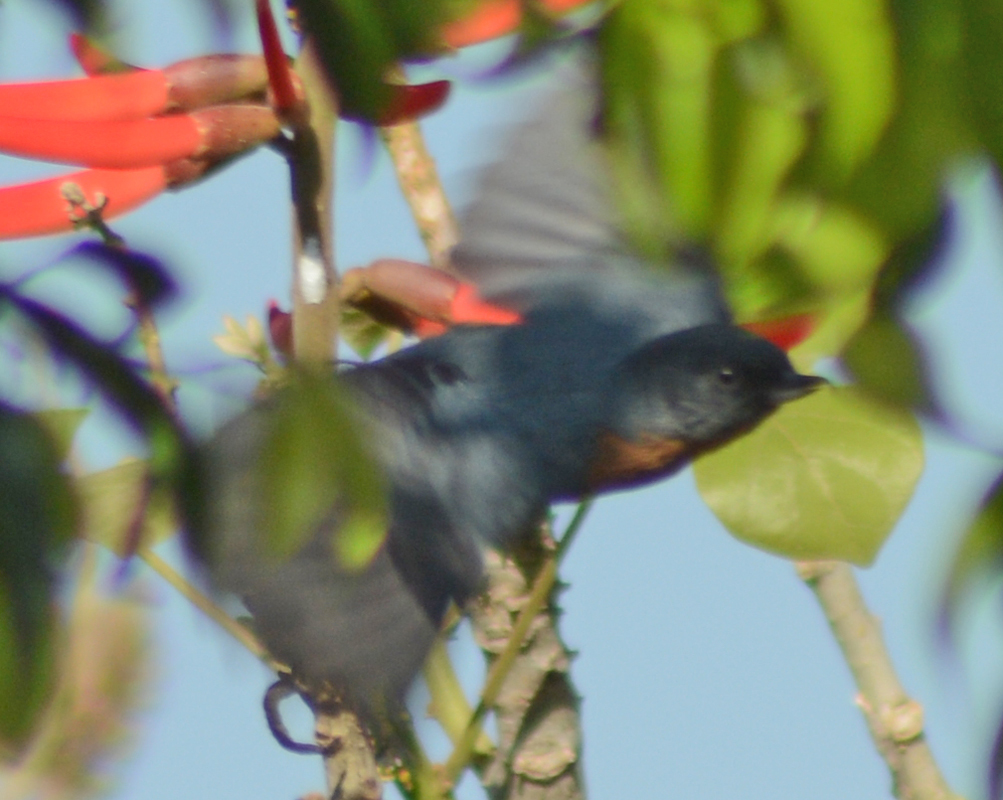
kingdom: Animalia
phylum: Chordata
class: Aves
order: Passeriformes
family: Thraupidae
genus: Diglossa
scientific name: Diglossa baritula
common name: Cinnamon-bellied flowerpiercer
